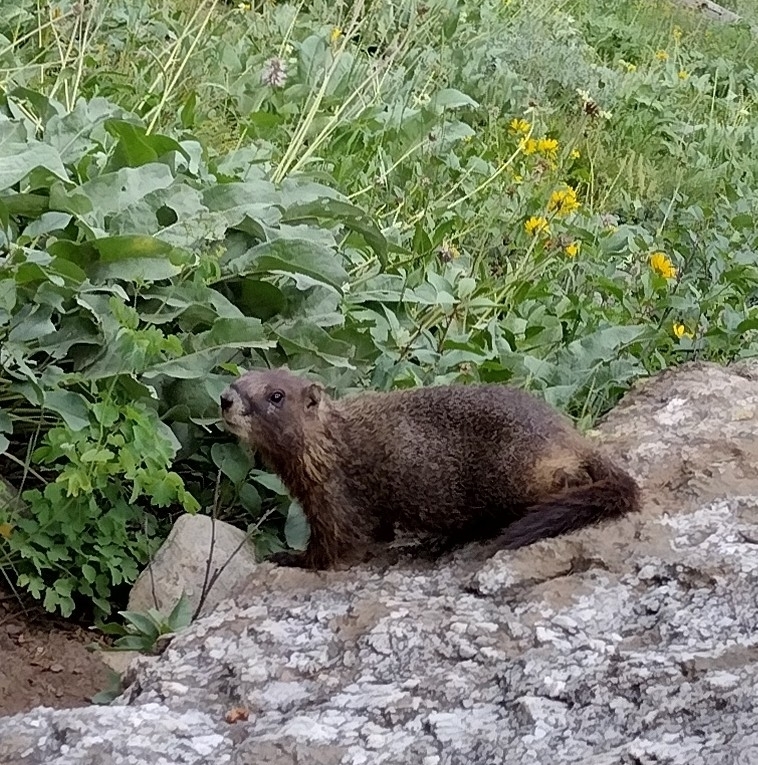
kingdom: Animalia
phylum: Chordata
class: Mammalia
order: Rodentia
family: Sciuridae
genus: Marmota
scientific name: Marmota flaviventris
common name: Yellow-bellied marmot
